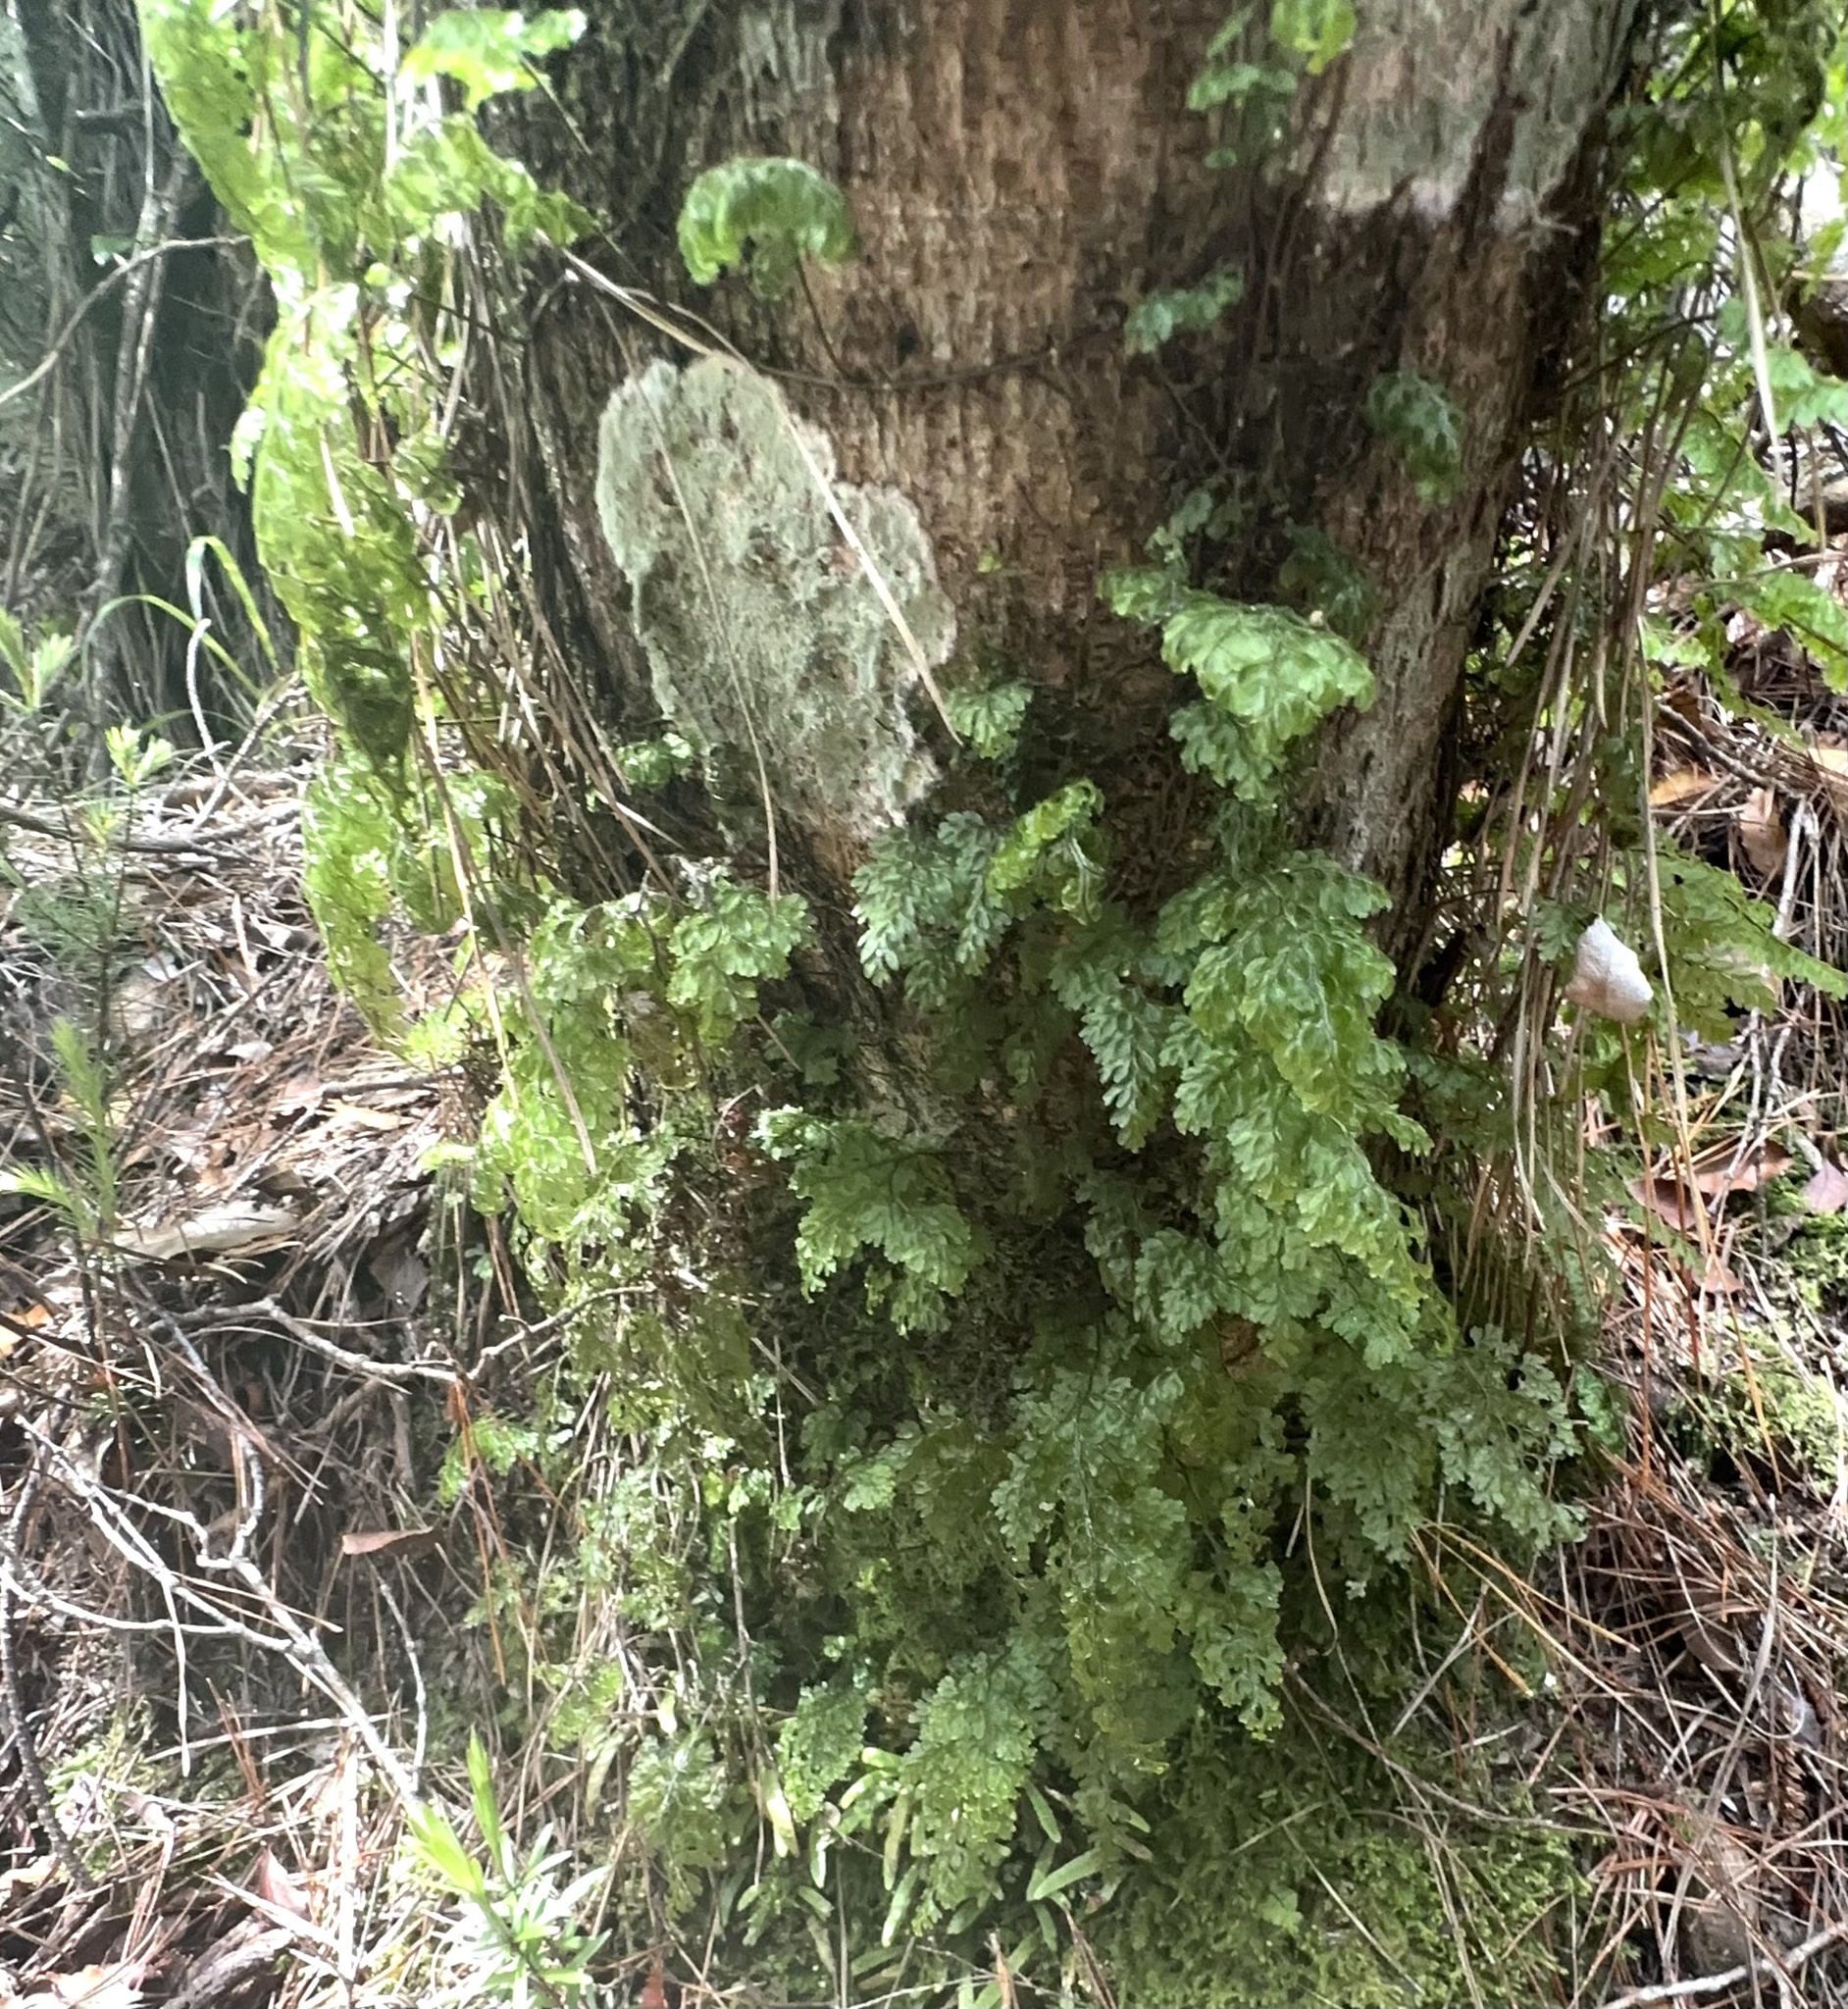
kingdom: Plantae
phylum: Tracheophyta
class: Polypodiopsida
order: Hymenophyllales
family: Hymenophyllaceae
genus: Hymenophyllum
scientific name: Hymenophyllum sanguinolentum
